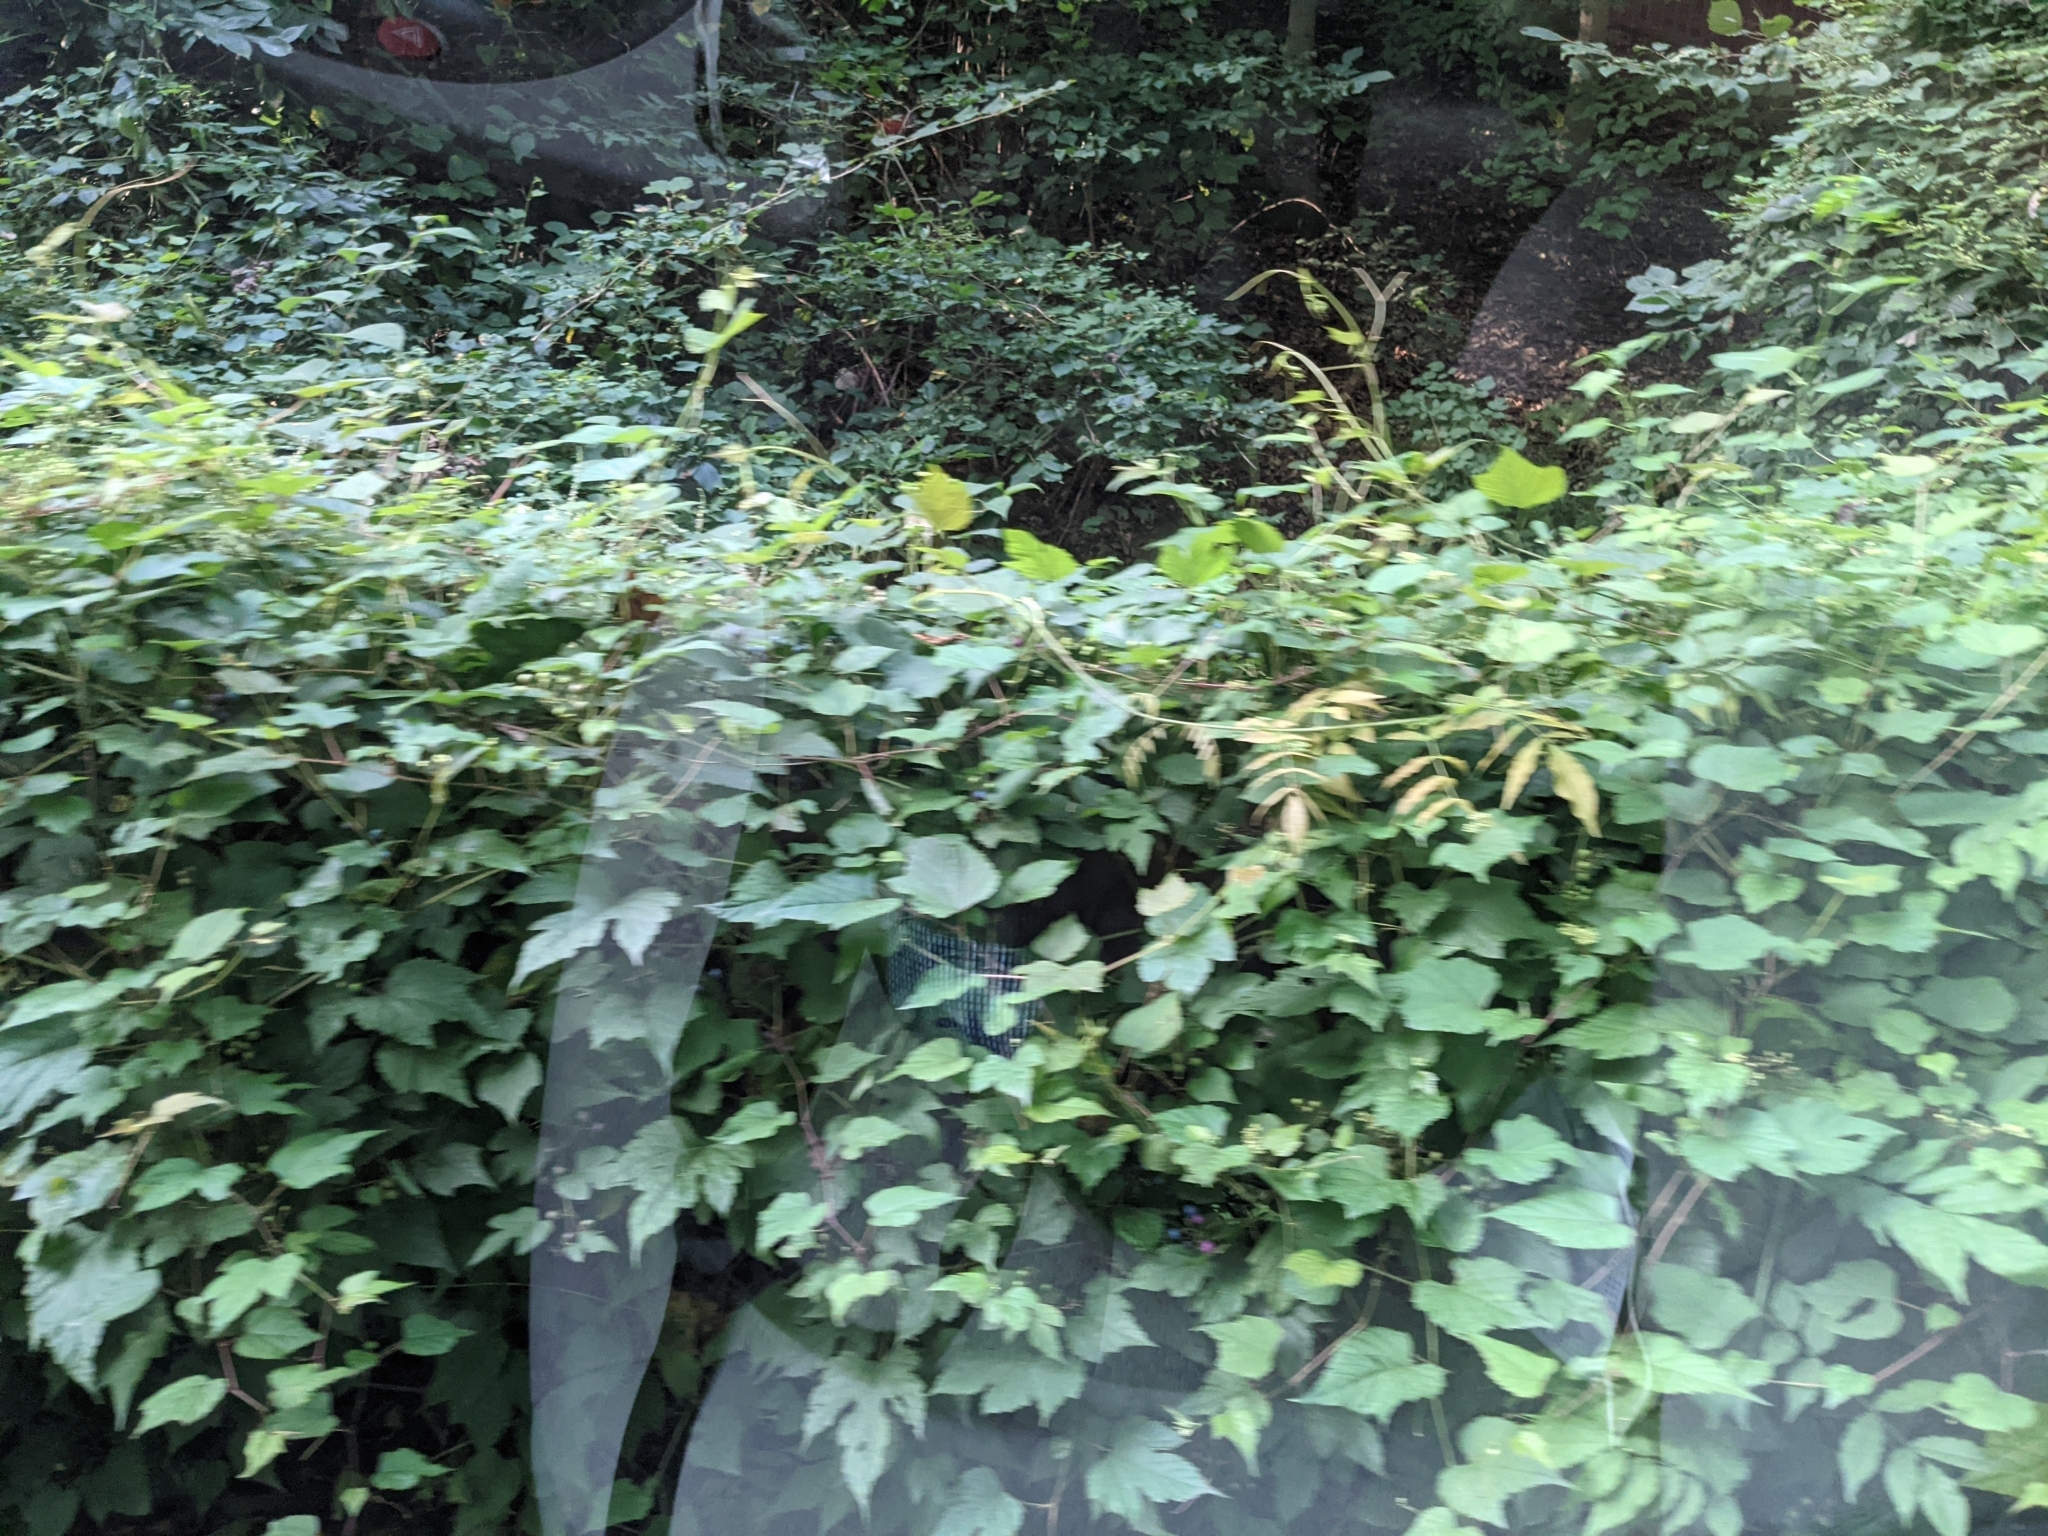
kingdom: Plantae
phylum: Tracheophyta
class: Magnoliopsida
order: Vitales
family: Vitaceae
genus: Ampelopsis
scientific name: Ampelopsis glandulosa
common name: Amur peppervine
